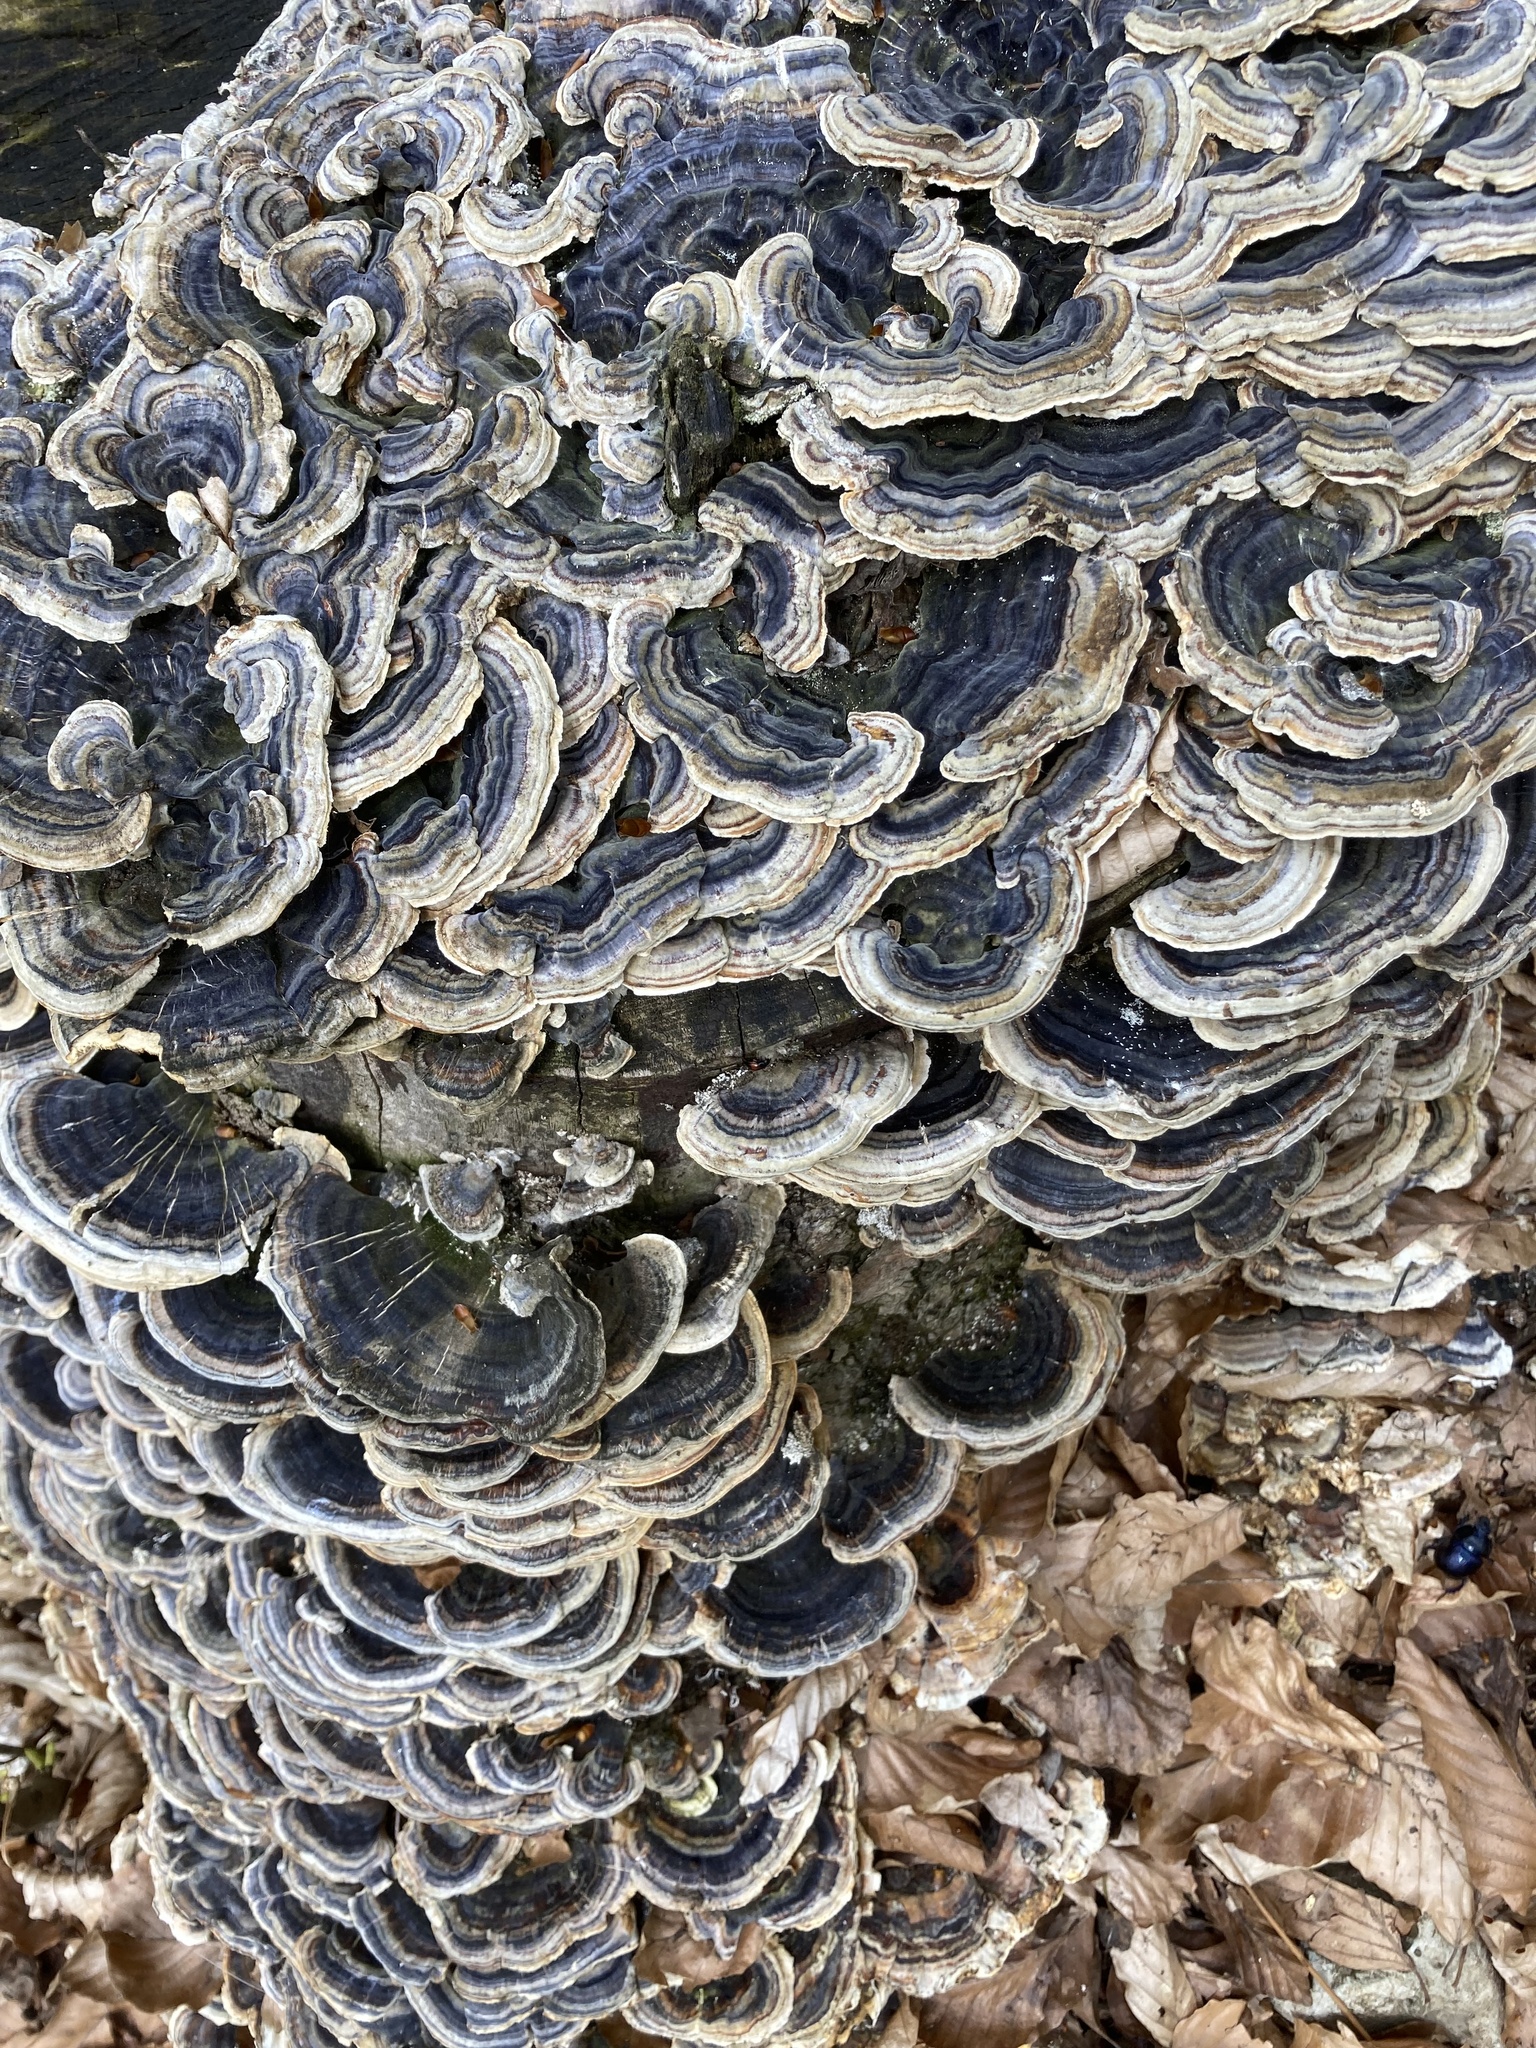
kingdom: Fungi
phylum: Basidiomycota
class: Agaricomycetes
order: Polyporales
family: Polyporaceae
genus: Trametes
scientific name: Trametes versicolor
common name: Turkeytail
